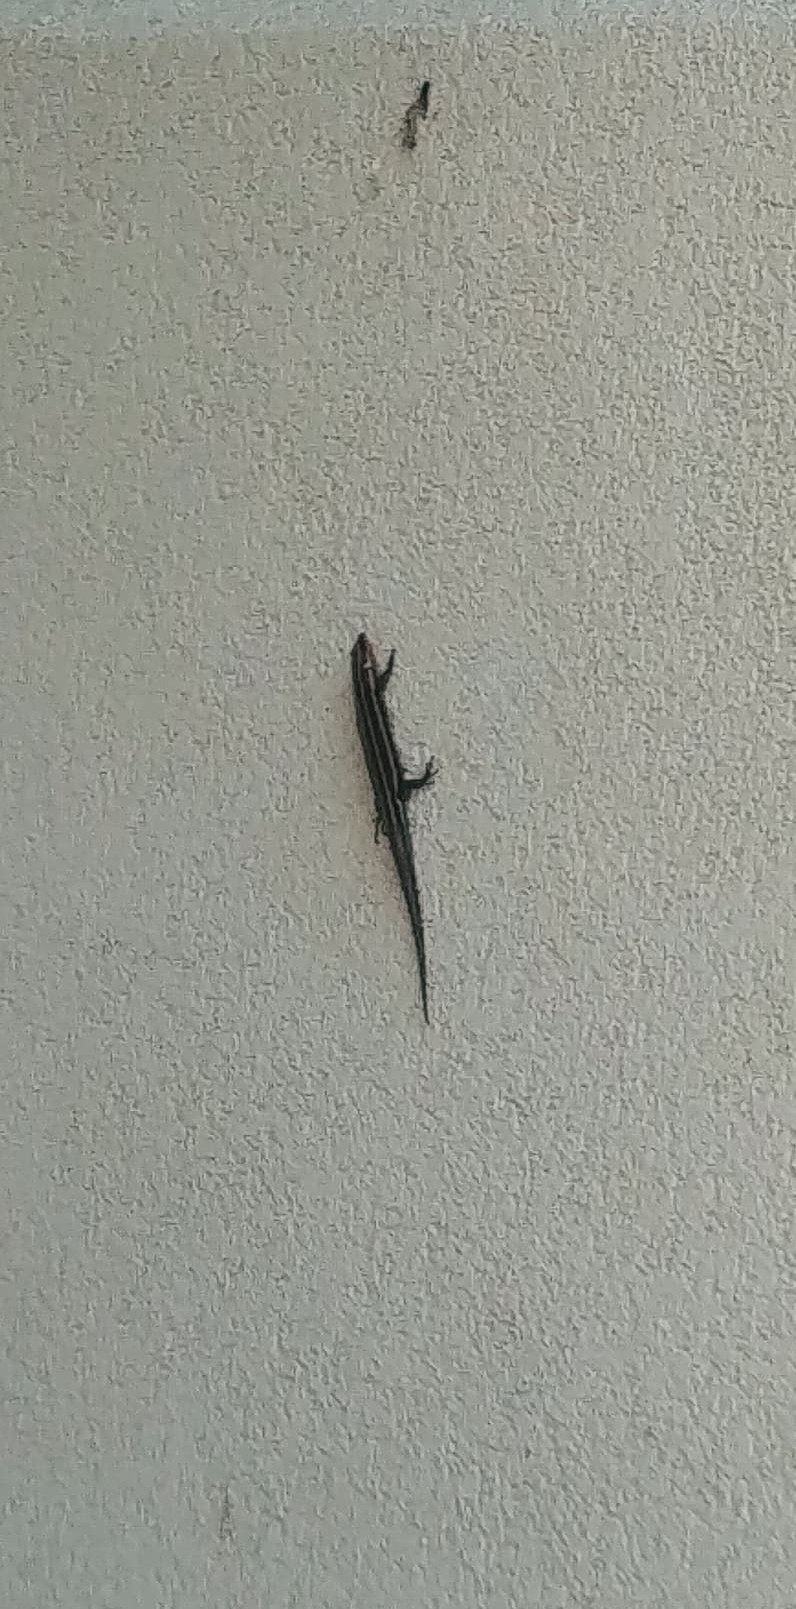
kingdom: Animalia
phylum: Chordata
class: Squamata
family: Scincidae
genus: Plestiodon
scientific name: Plestiodon fasciatus
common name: Five-lined skink
